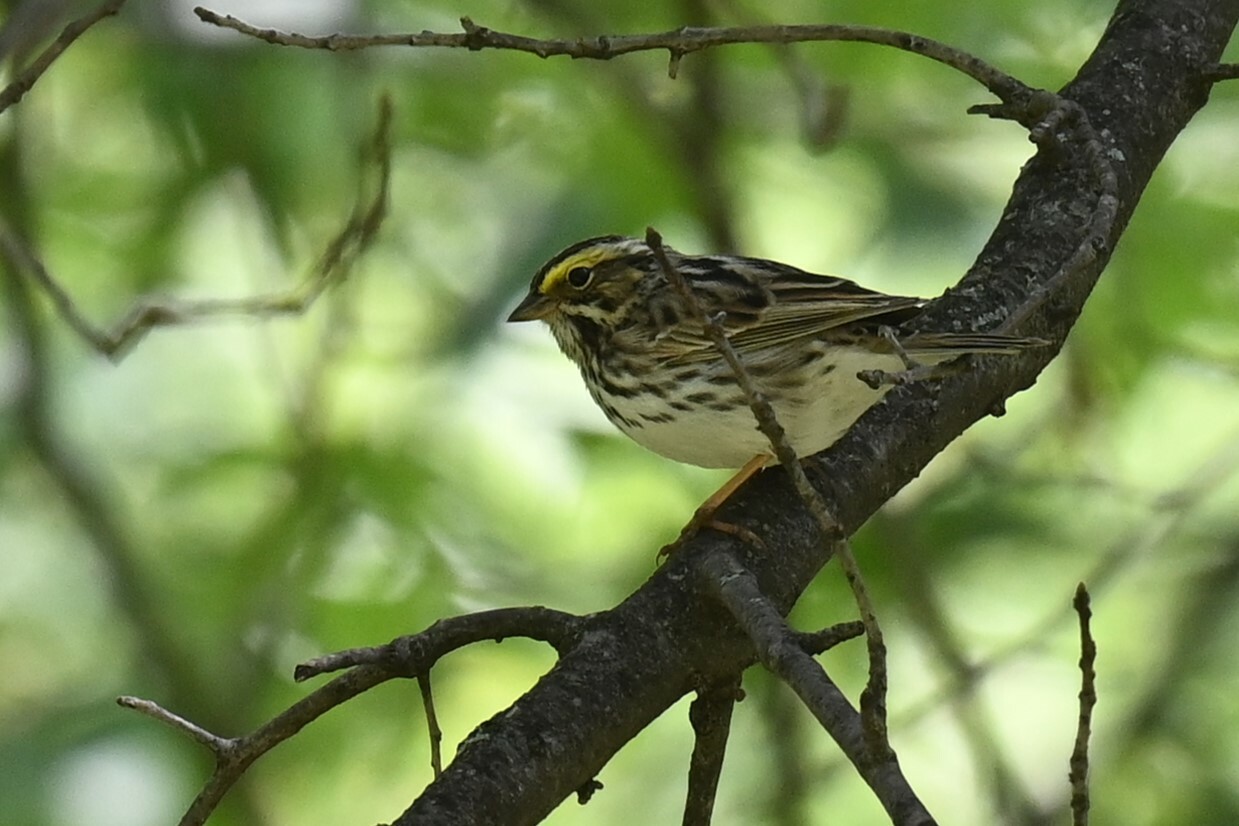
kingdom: Animalia
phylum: Chordata
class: Aves
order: Passeriformes
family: Passerellidae
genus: Passerculus
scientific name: Passerculus sandwichensis
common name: Savannah sparrow
